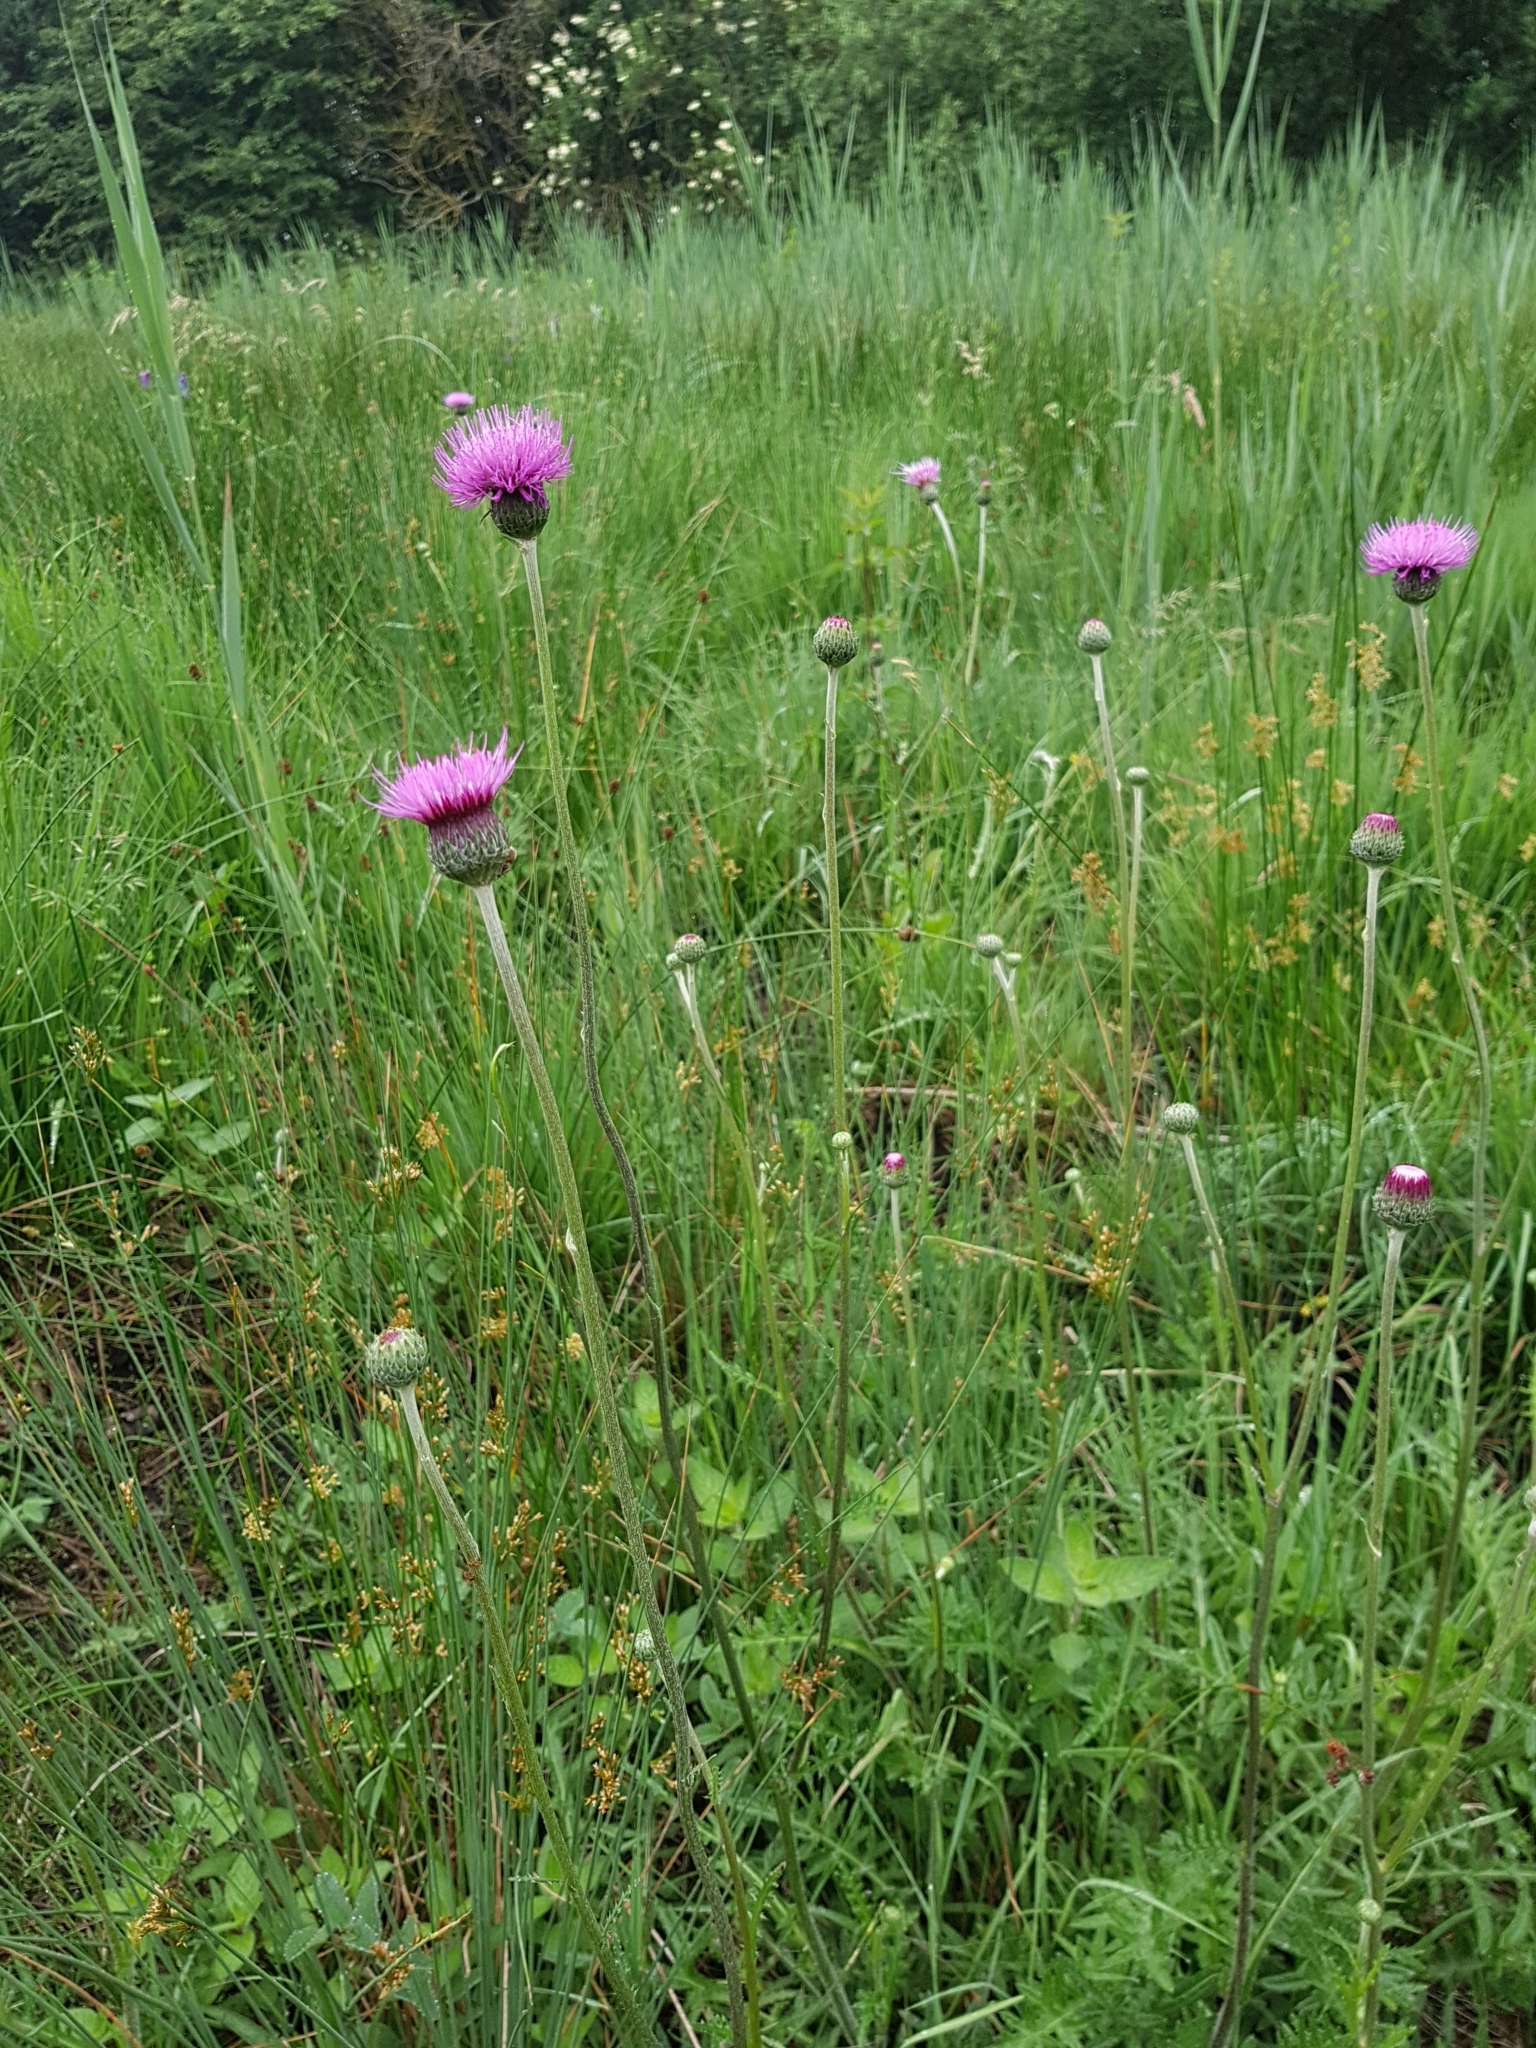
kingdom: Plantae
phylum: Tracheophyta
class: Magnoliopsida
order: Asterales
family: Asteraceae
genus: Cirsium
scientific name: Cirsium tuberosum
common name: Tuberous thistle
